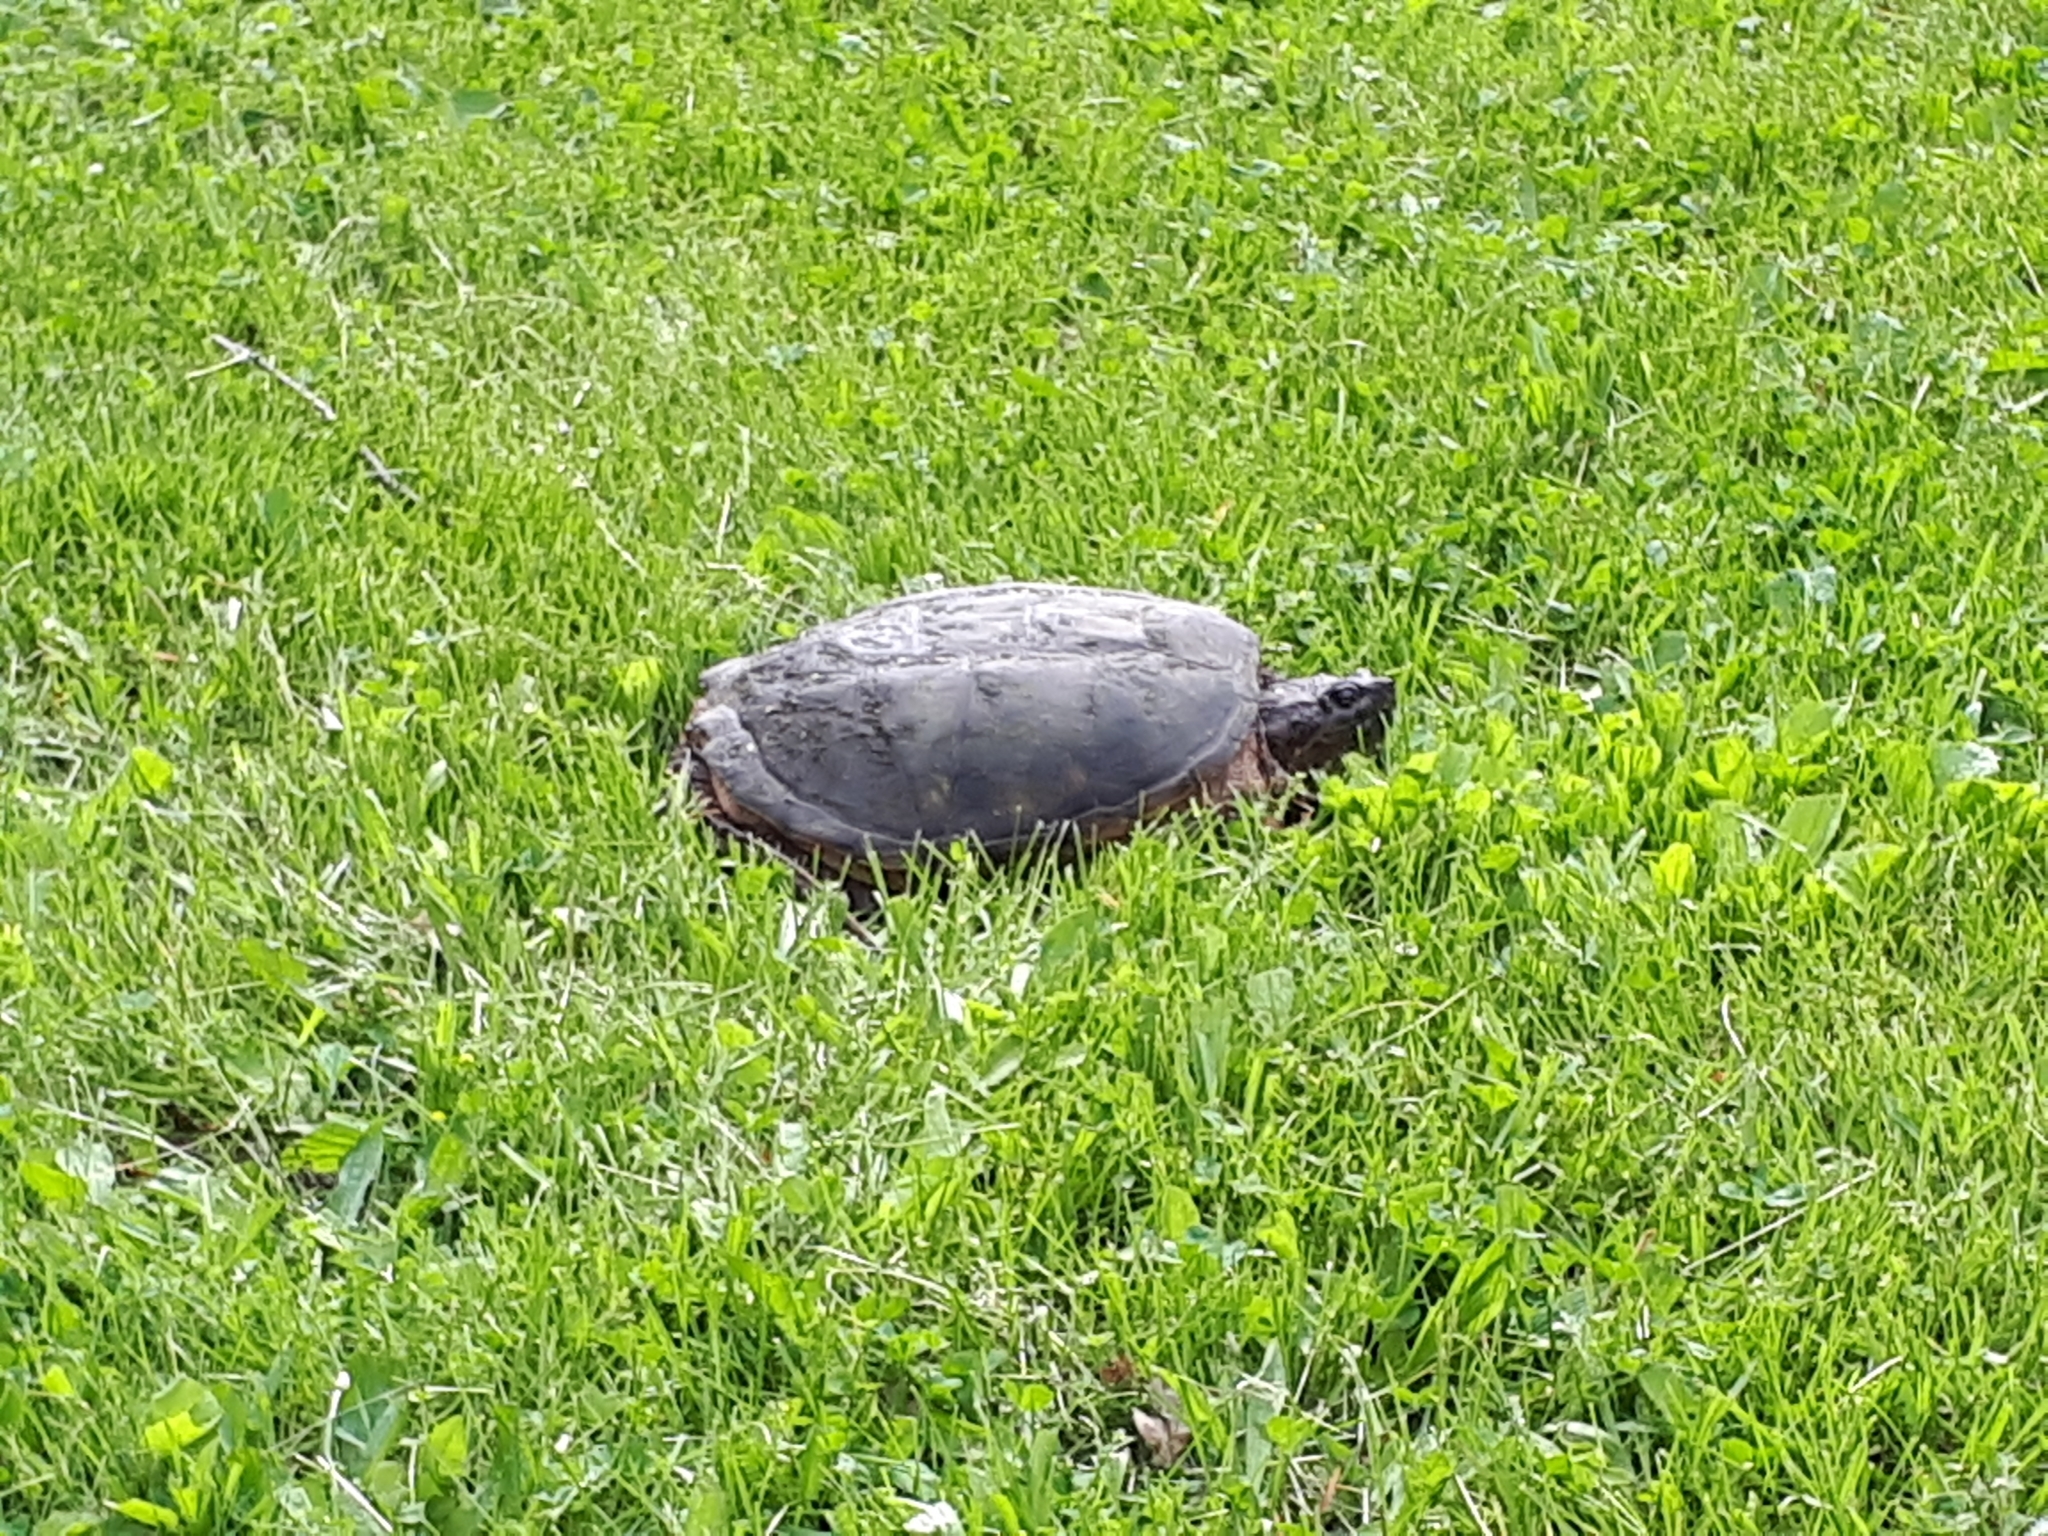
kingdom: Animalia
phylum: Chordata
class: Testudines
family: Chelydridae
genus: Chelydra
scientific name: Chelydra serpentina
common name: Common snapping turtle
